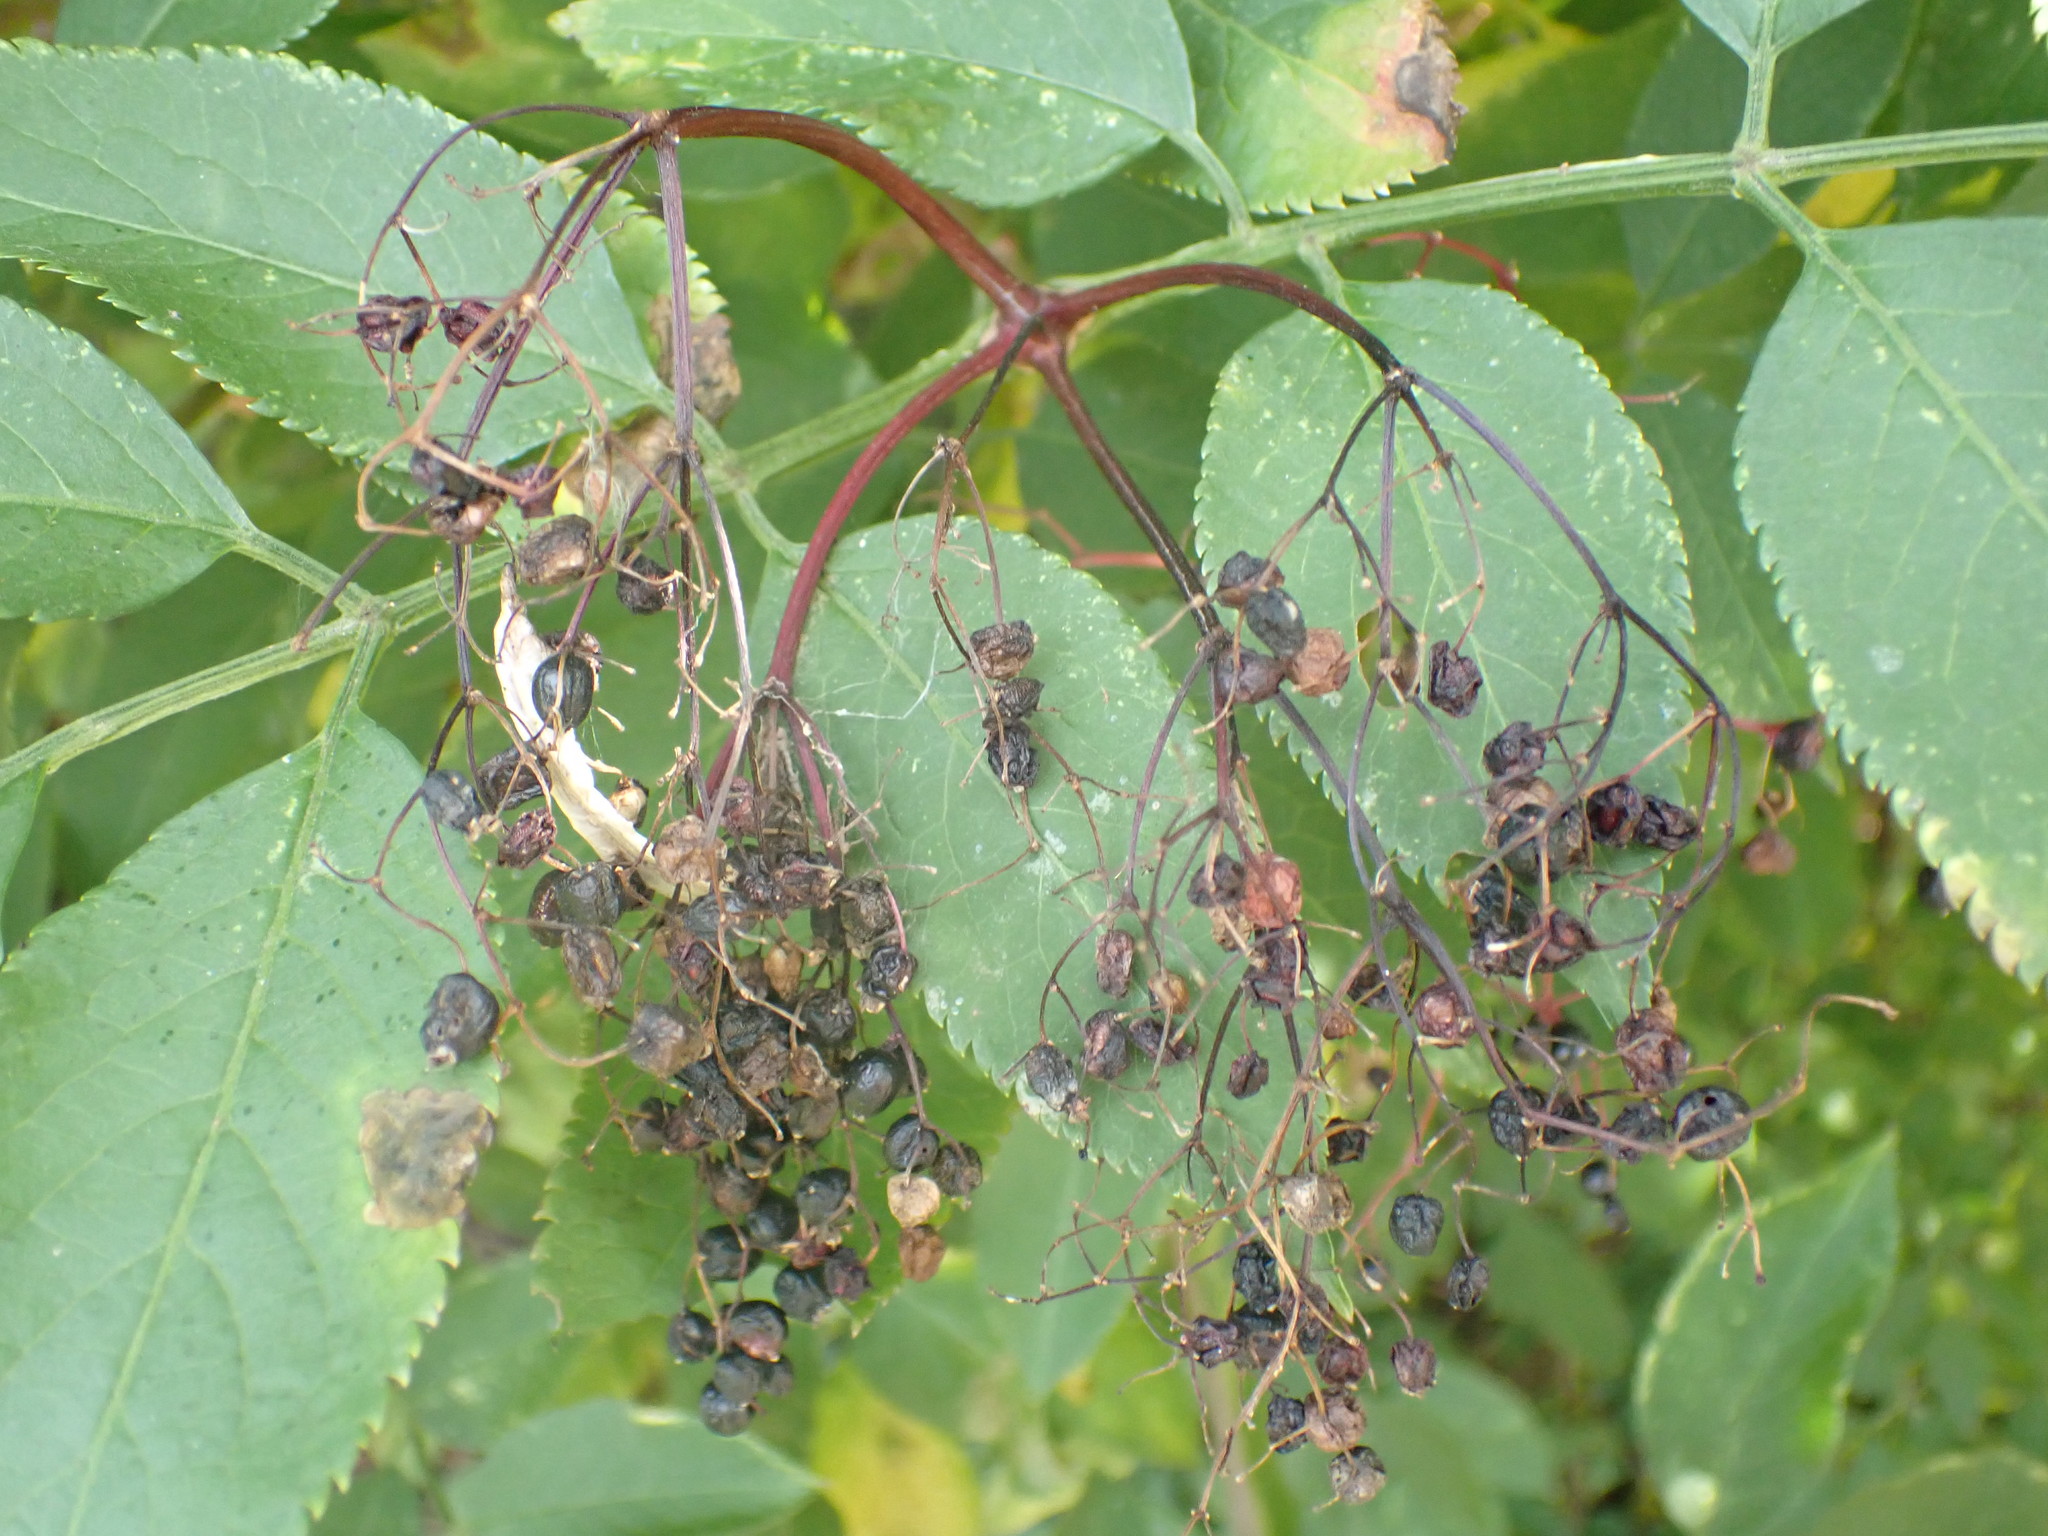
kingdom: Plantae
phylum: Tracheophyta
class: Magnoliopsida
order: Dipsacales
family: Viburnaceae
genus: Sambucus
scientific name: Sambucus nigra
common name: Elder
